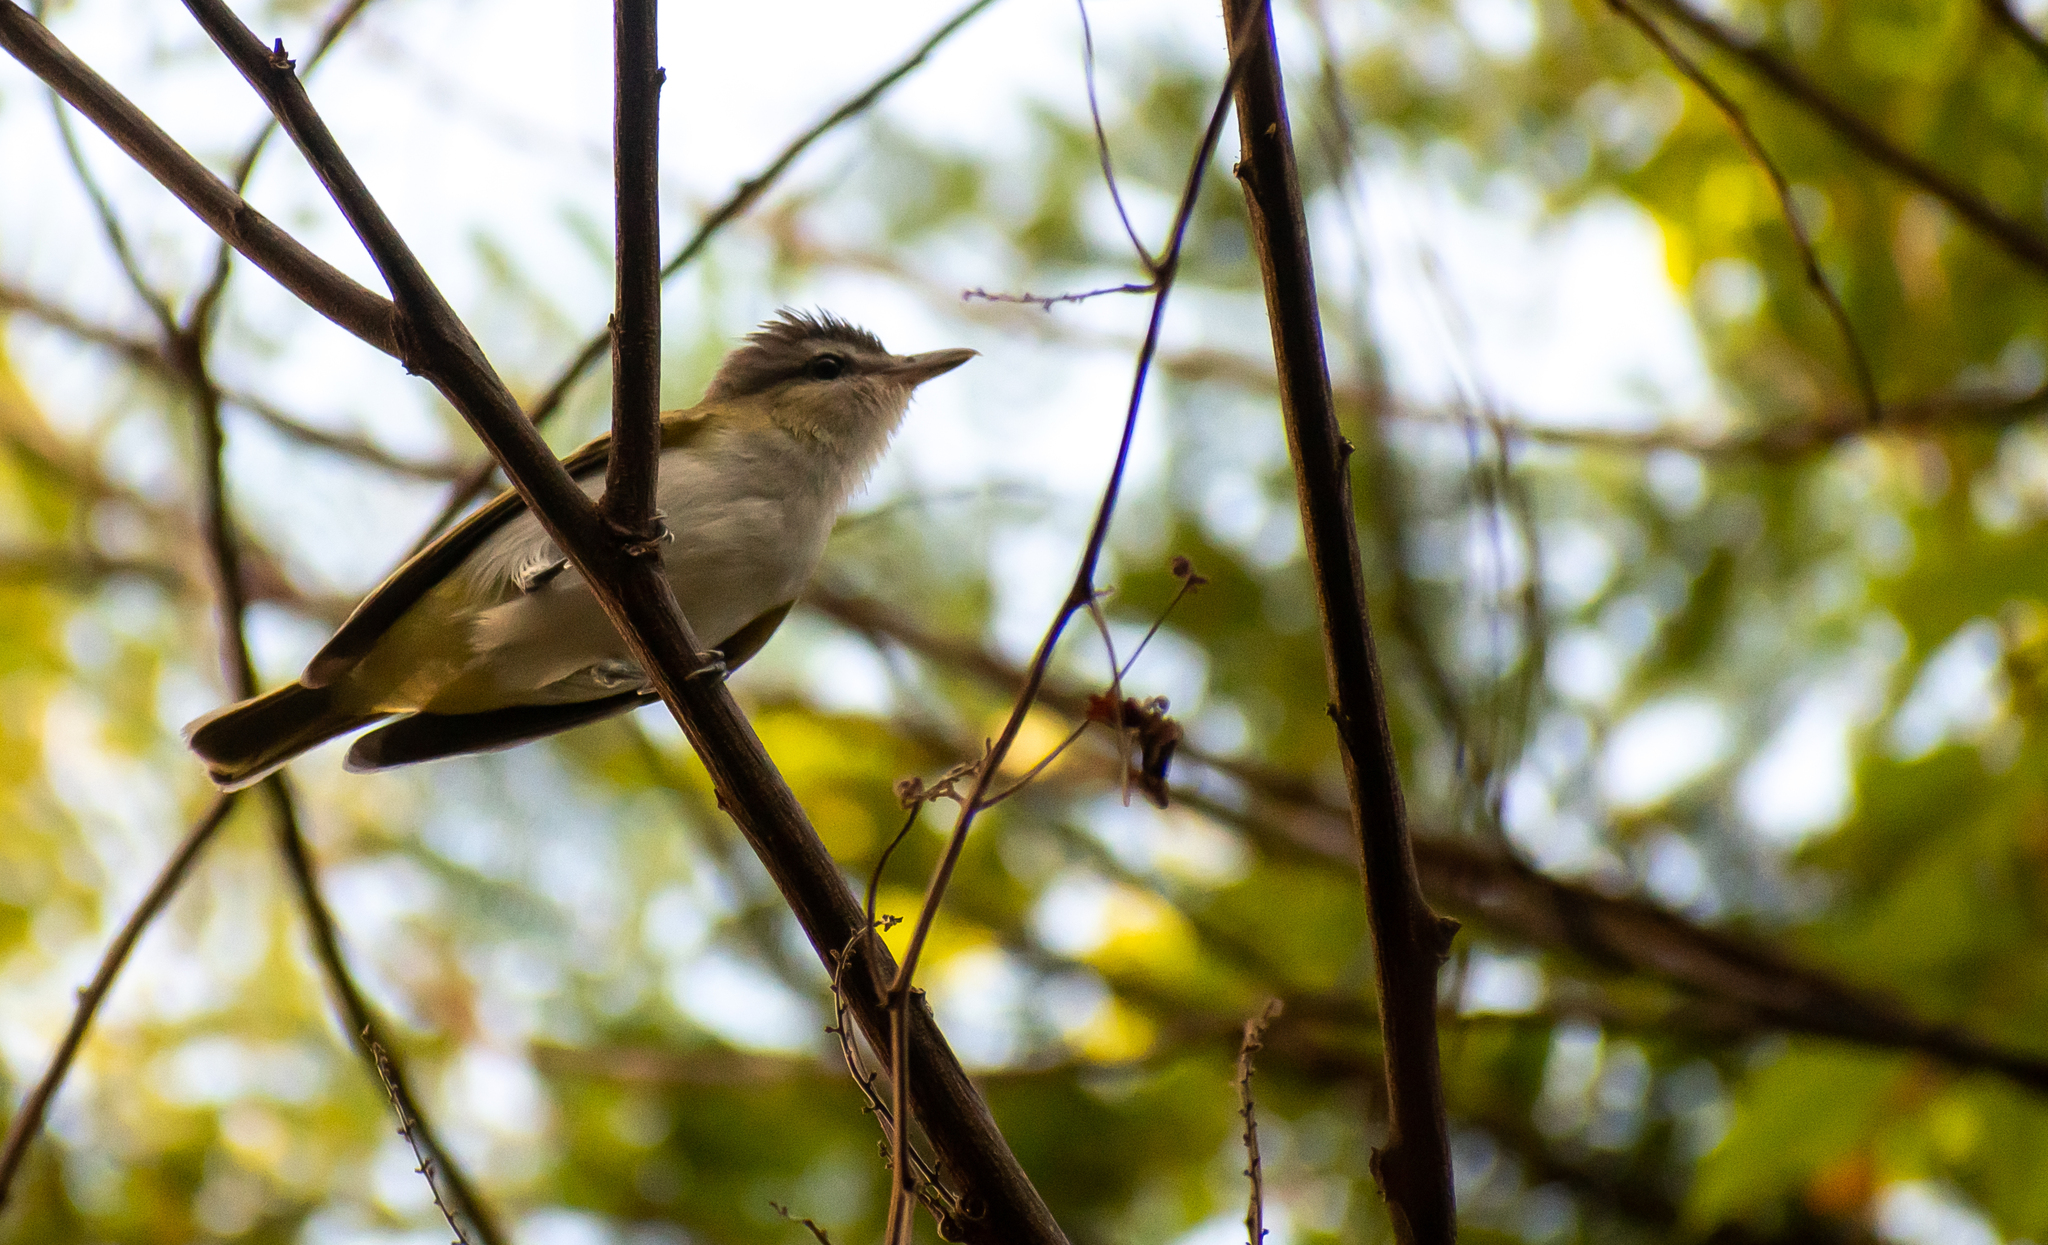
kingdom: Animalia
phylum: Chordata
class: Aves
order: Passeriformes
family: Vireonidae
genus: Vireo
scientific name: Vireo olivaceus
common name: Red-eyed vireo
